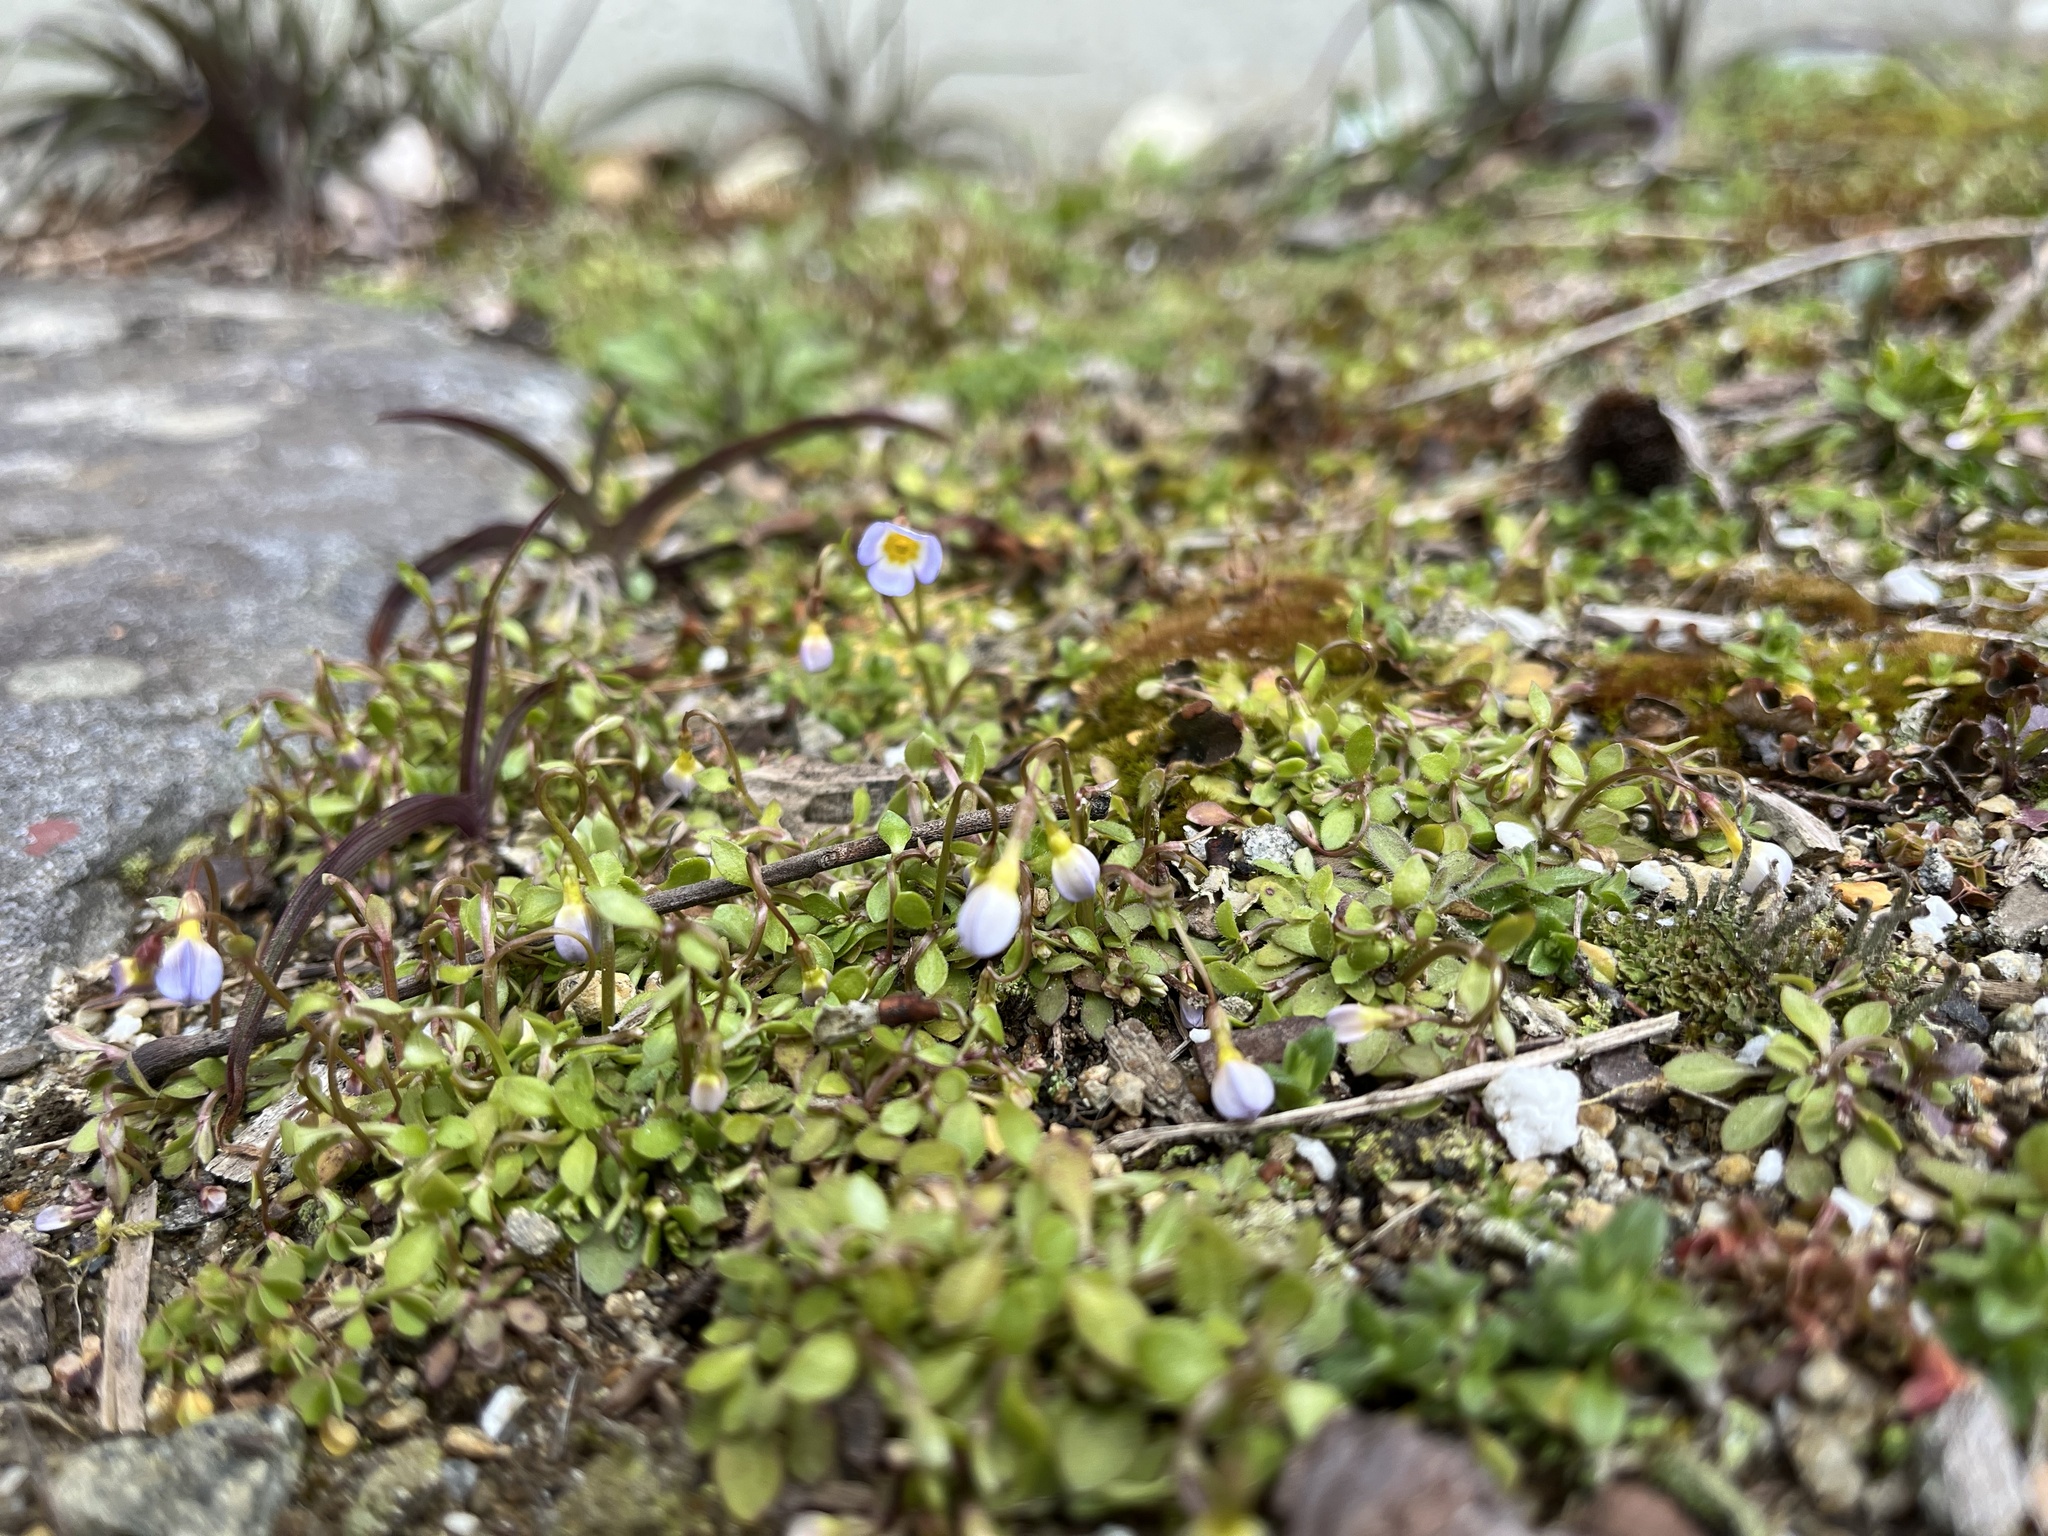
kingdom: Plantae
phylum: Tracheophyta
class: Magnoliopsida
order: Gentianales
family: Rubiaceae
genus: Houstonia
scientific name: Houstonia caerulea
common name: Bluets
